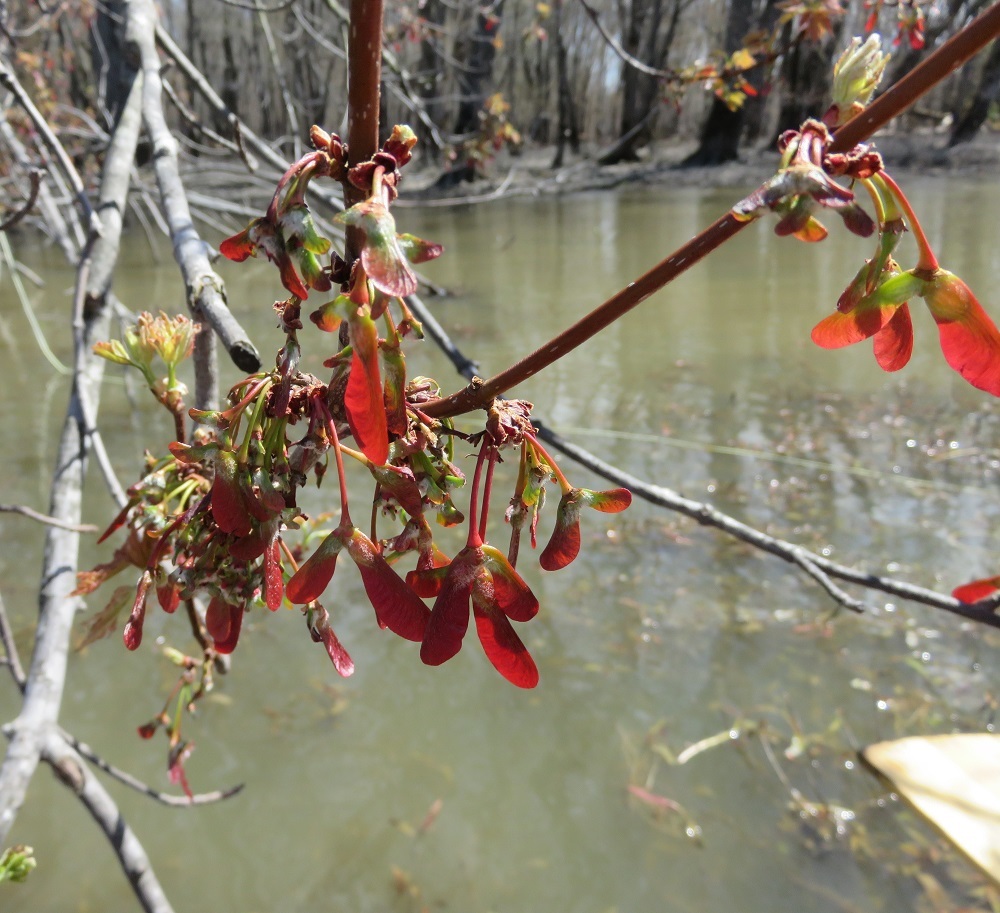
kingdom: Plantae
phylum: Tracheophyta
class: Magnoliopsida
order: Sapindales
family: Sapindaceae
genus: Acer
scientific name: Acer saccharinum
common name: Silver maple
